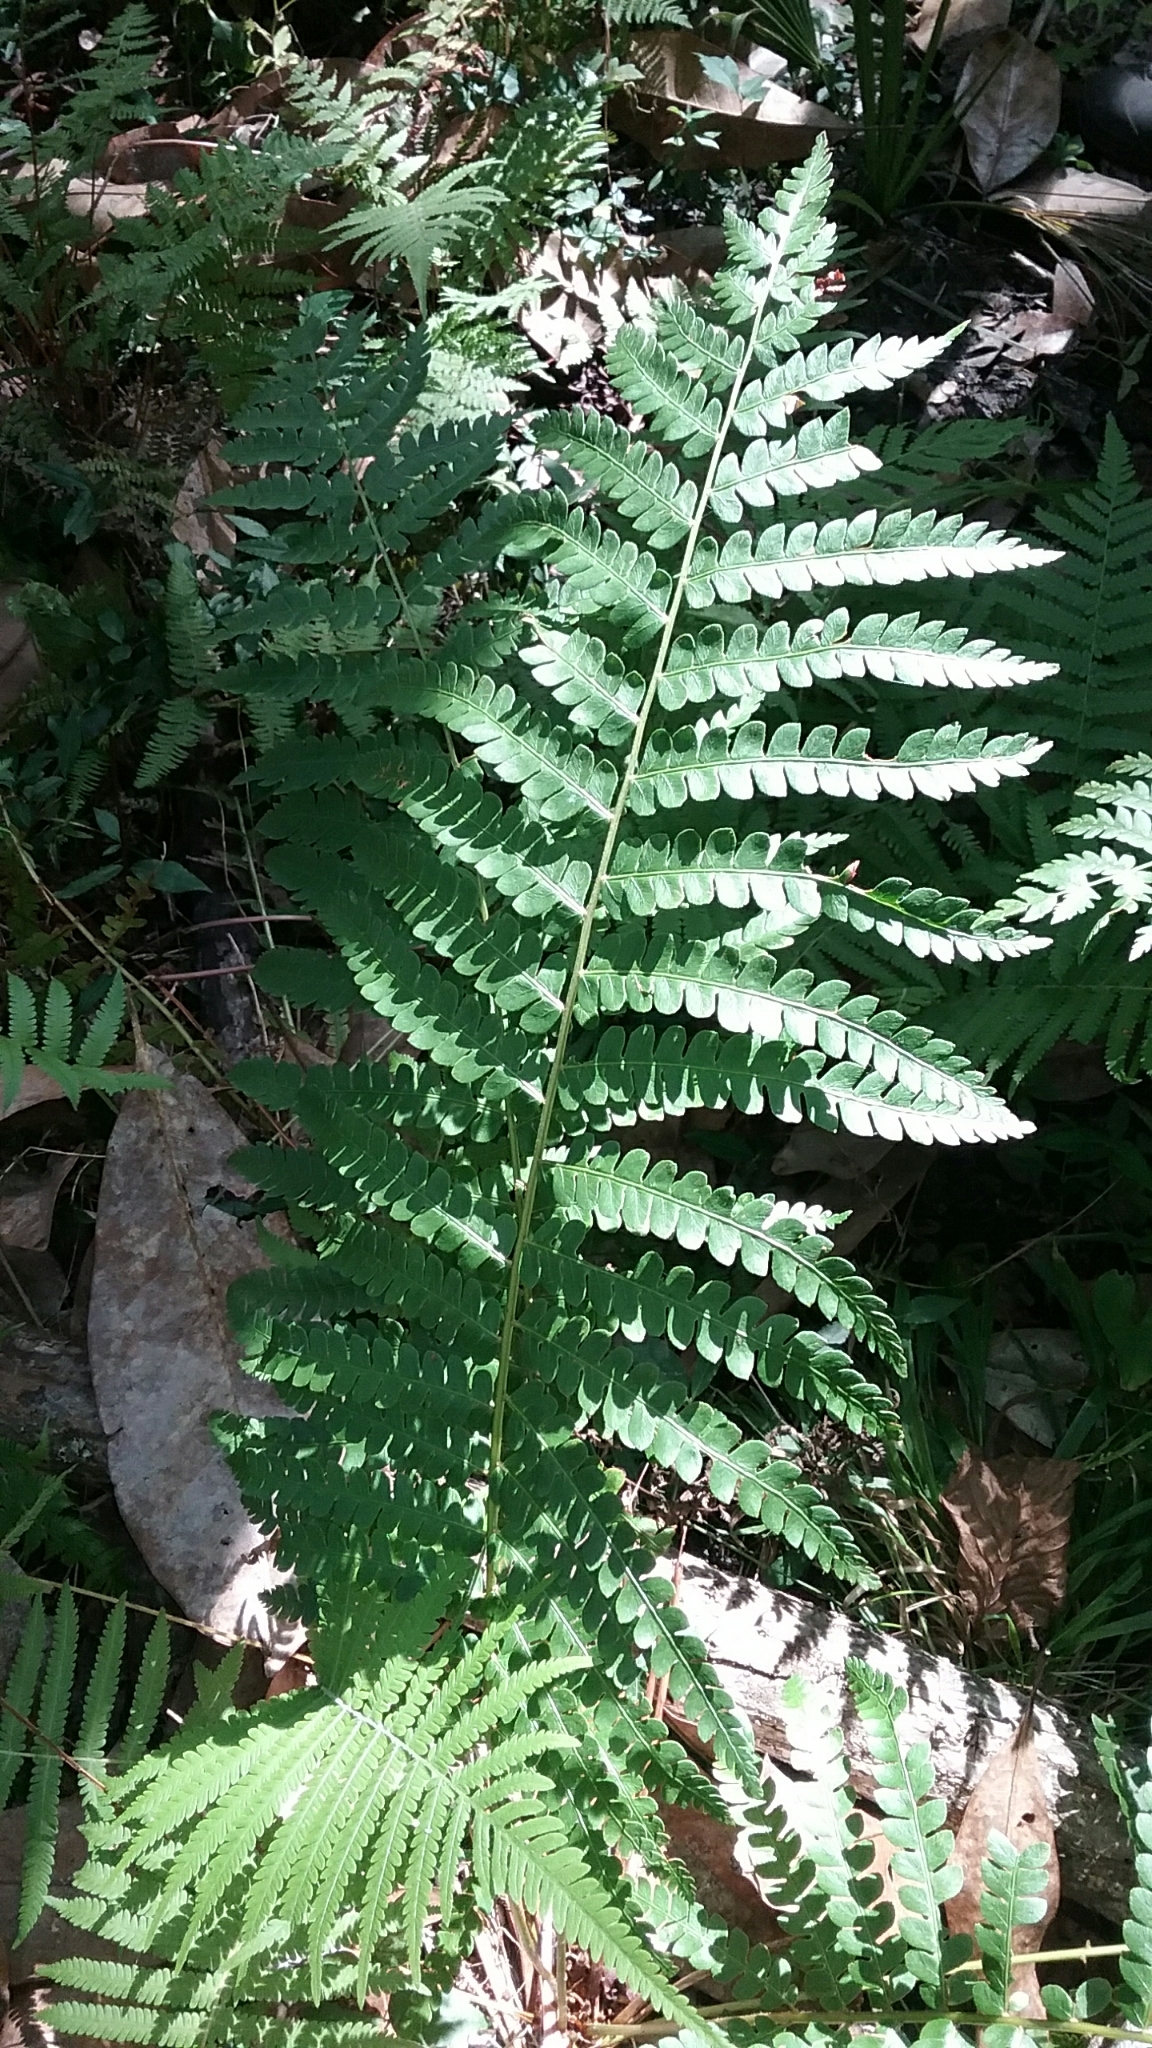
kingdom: Plantae
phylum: Tracheophyta
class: Polypodiopsida
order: Osmundales
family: Osmundaceae
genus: Osmundastrum
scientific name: Osmundastrum cinnamomeum
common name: Cinnamon fern
